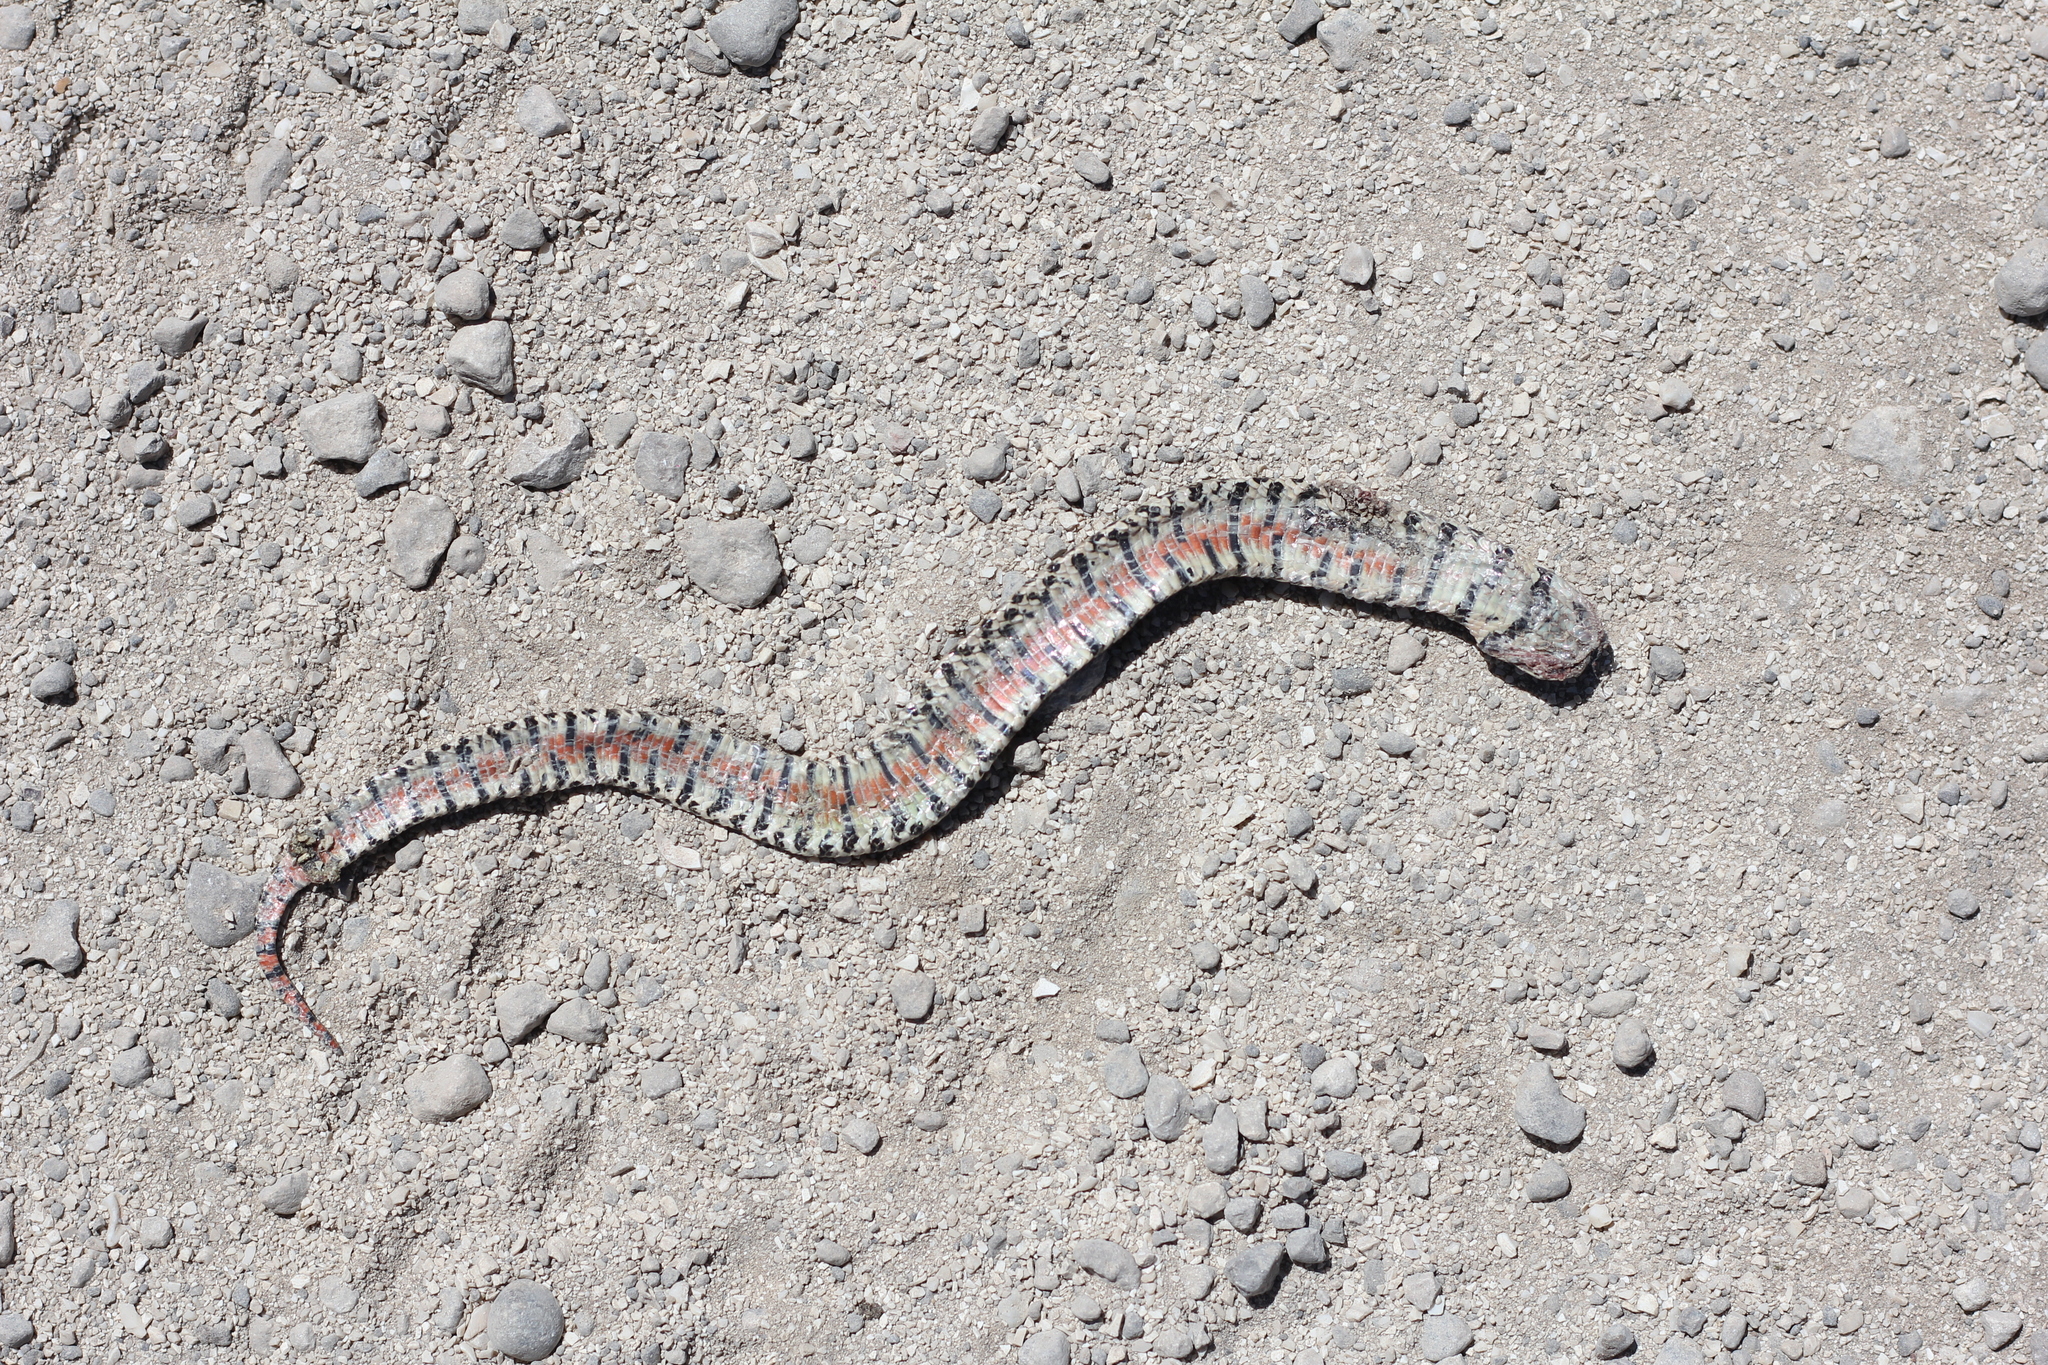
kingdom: Animalia
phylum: Chordata
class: Squamata
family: Colubridae
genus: Xenodon
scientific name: Xenodon dorbignyi
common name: South american hognose snake
